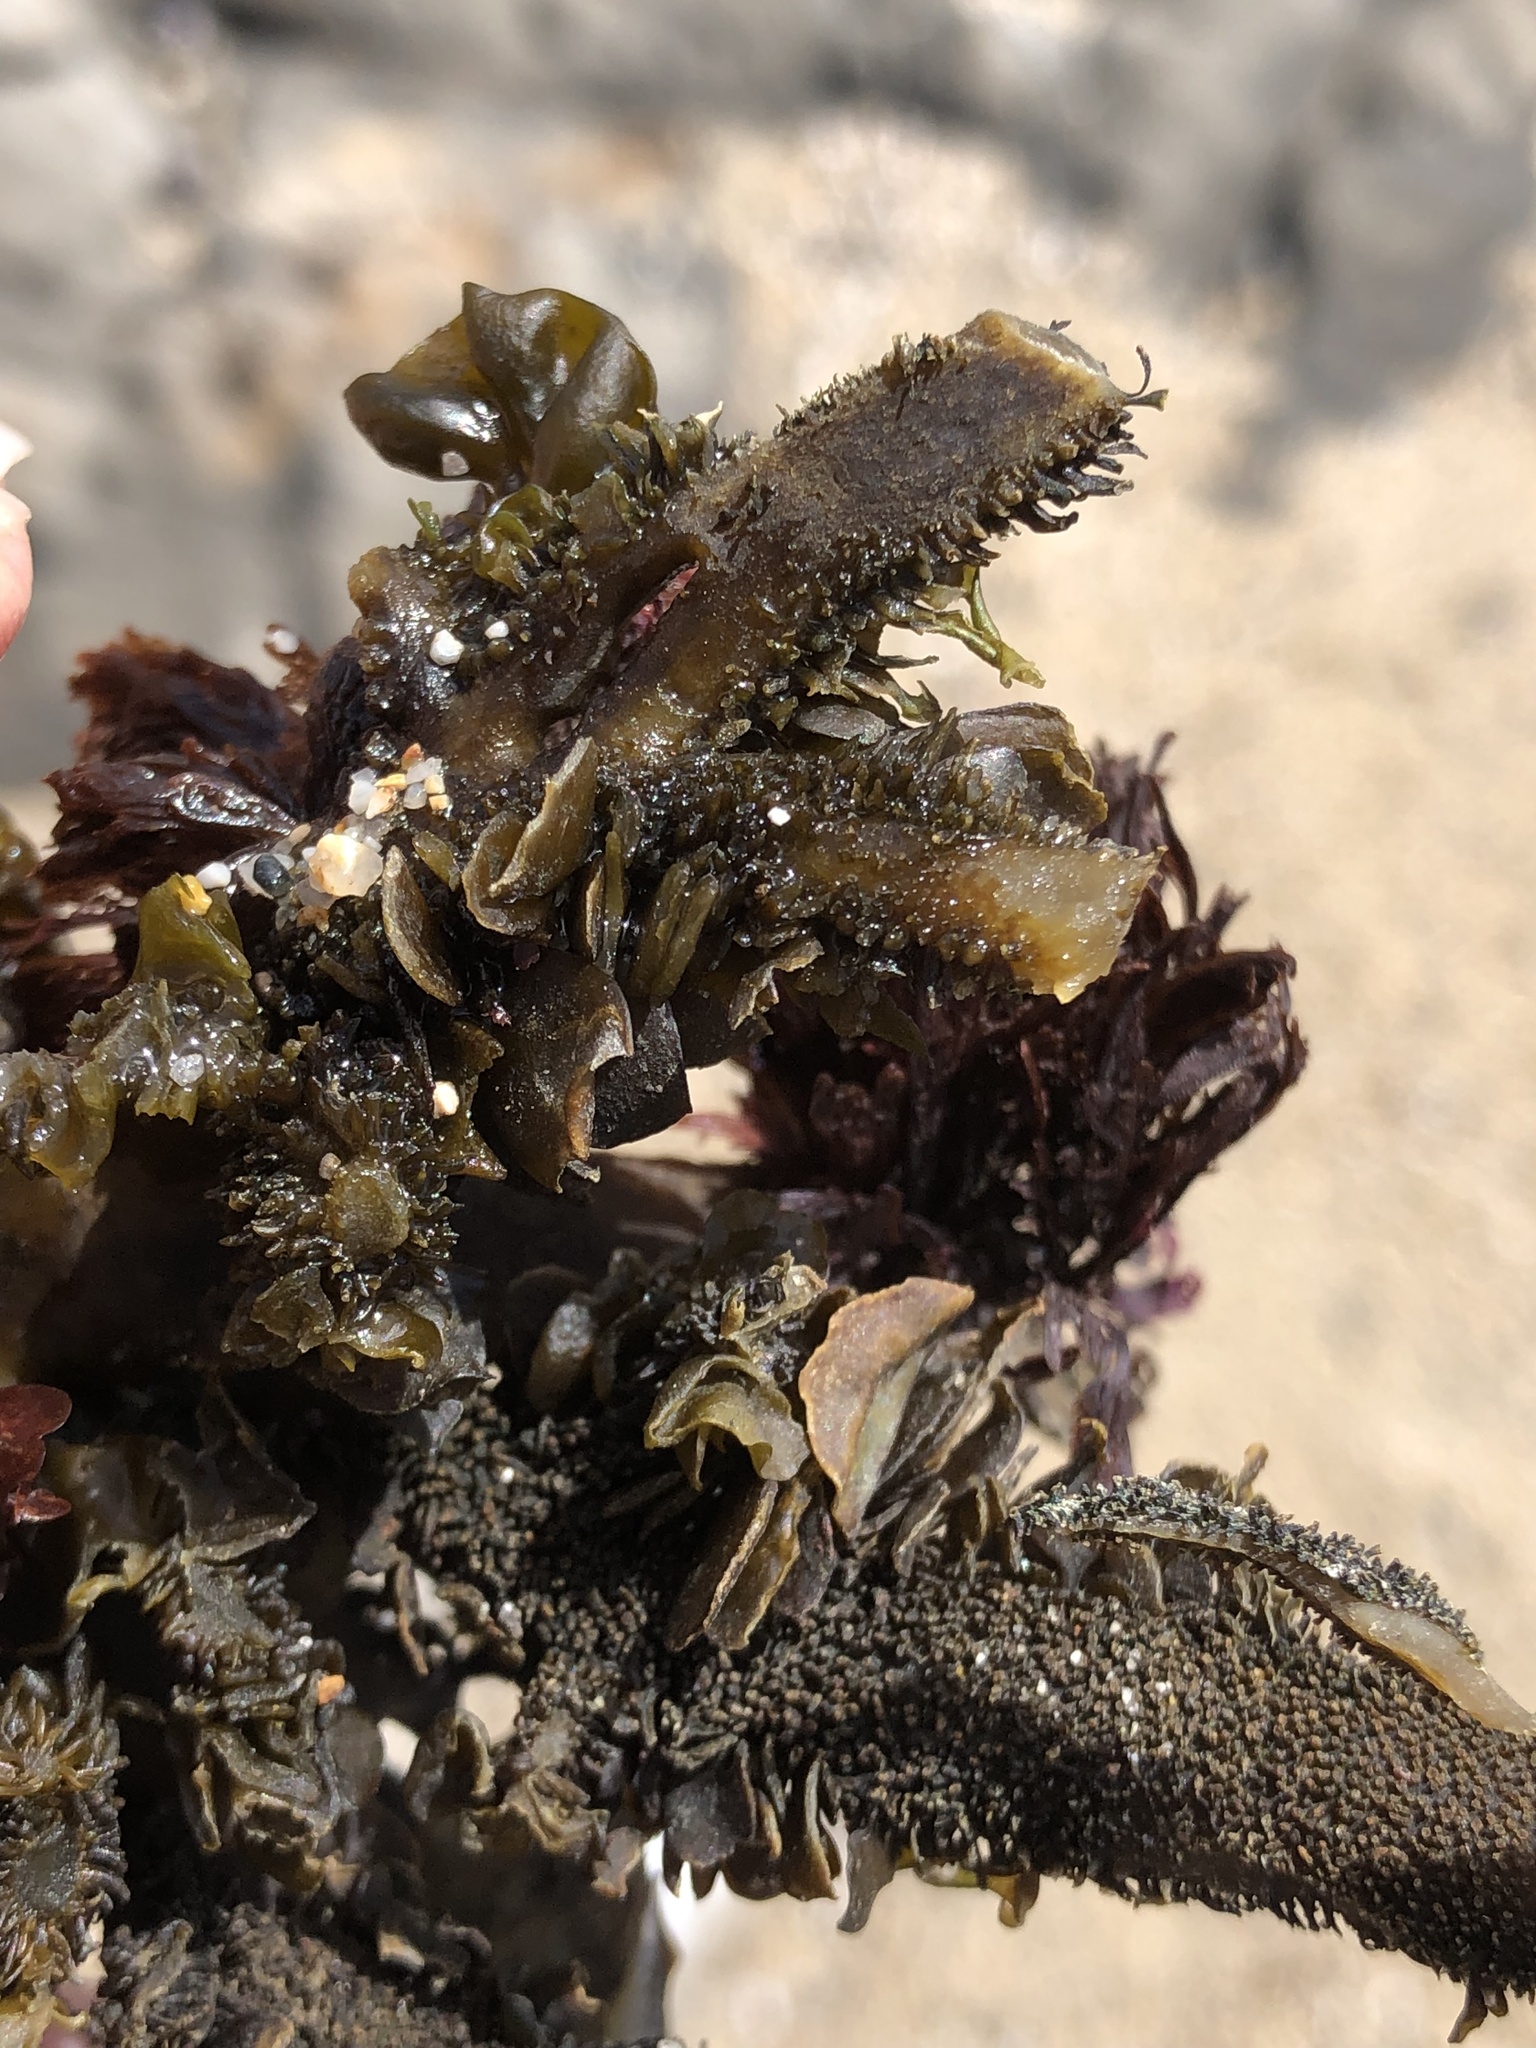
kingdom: Chromista
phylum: Ochrophyta
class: Phaeophyceae
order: Laminariales
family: Lessoniaceae
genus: Egregia
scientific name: Egregia menziesii
